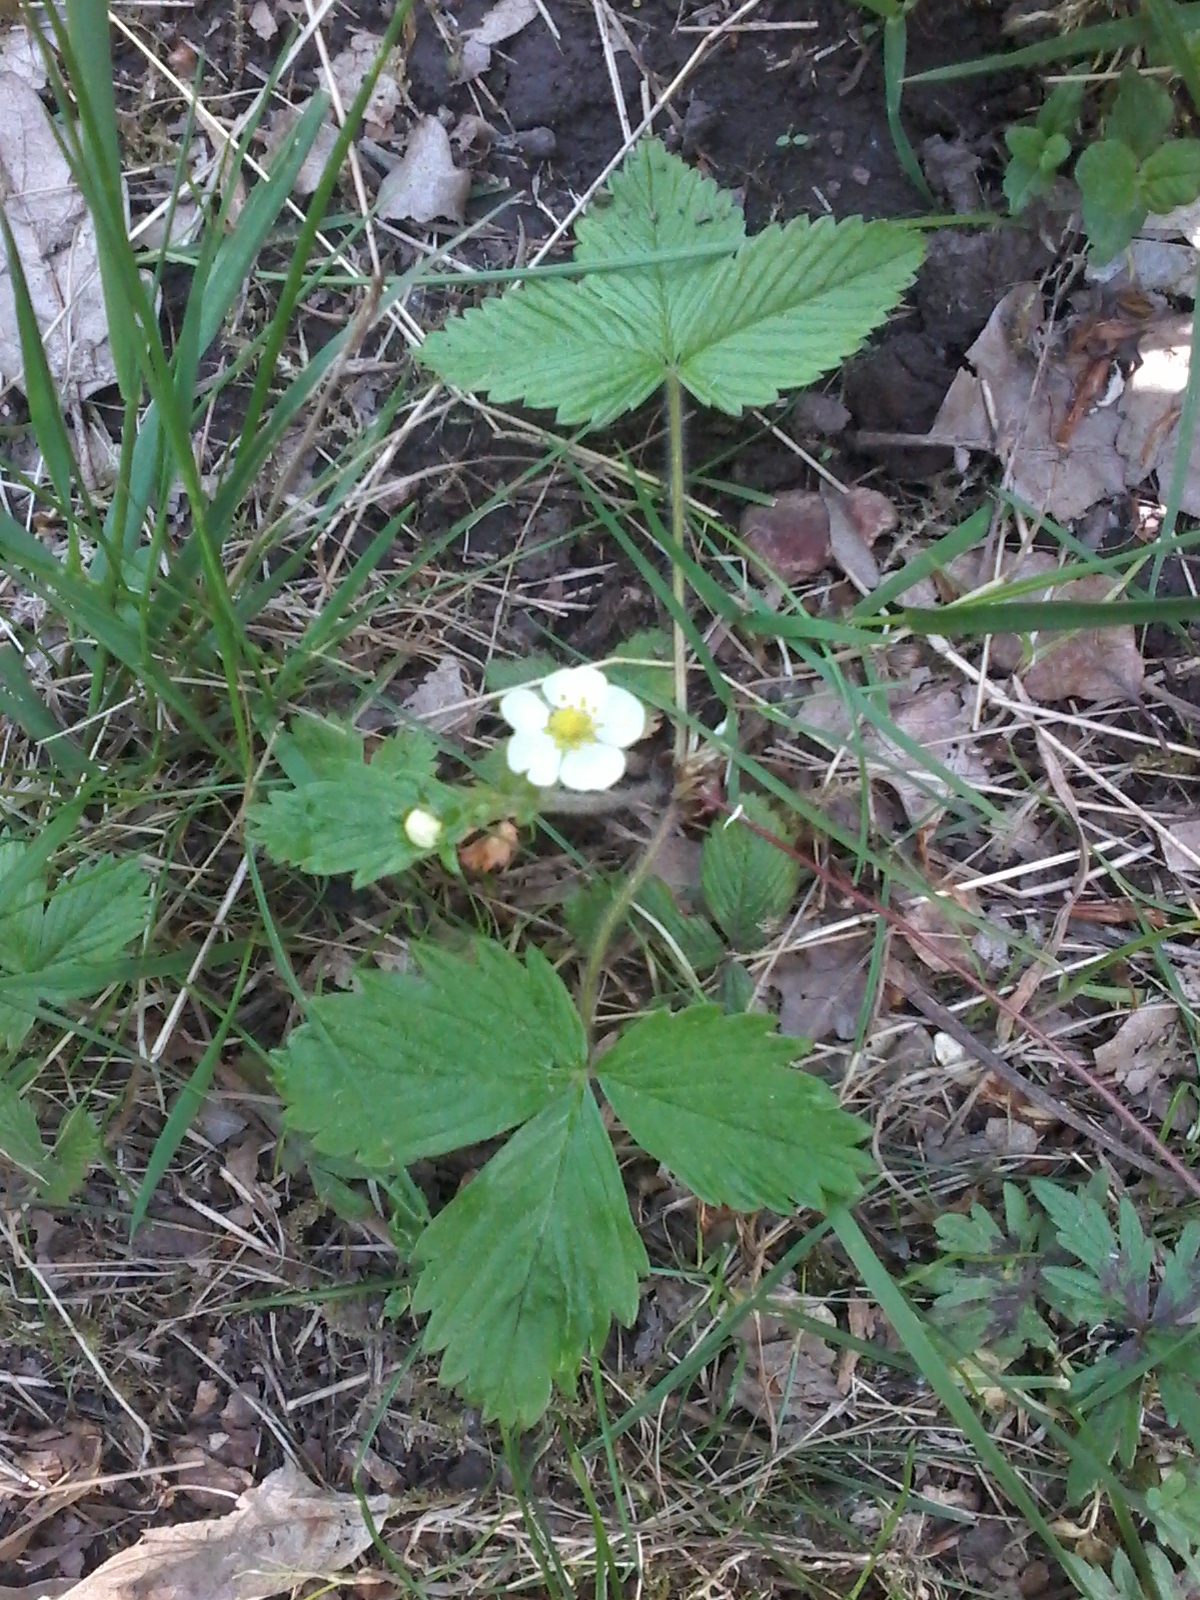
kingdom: Plantae
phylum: Tracheophyta
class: Magnoliopsida
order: Rosales
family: Rosaceae
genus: Fragaria
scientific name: Fragaria vesca
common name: Wild strawberry
